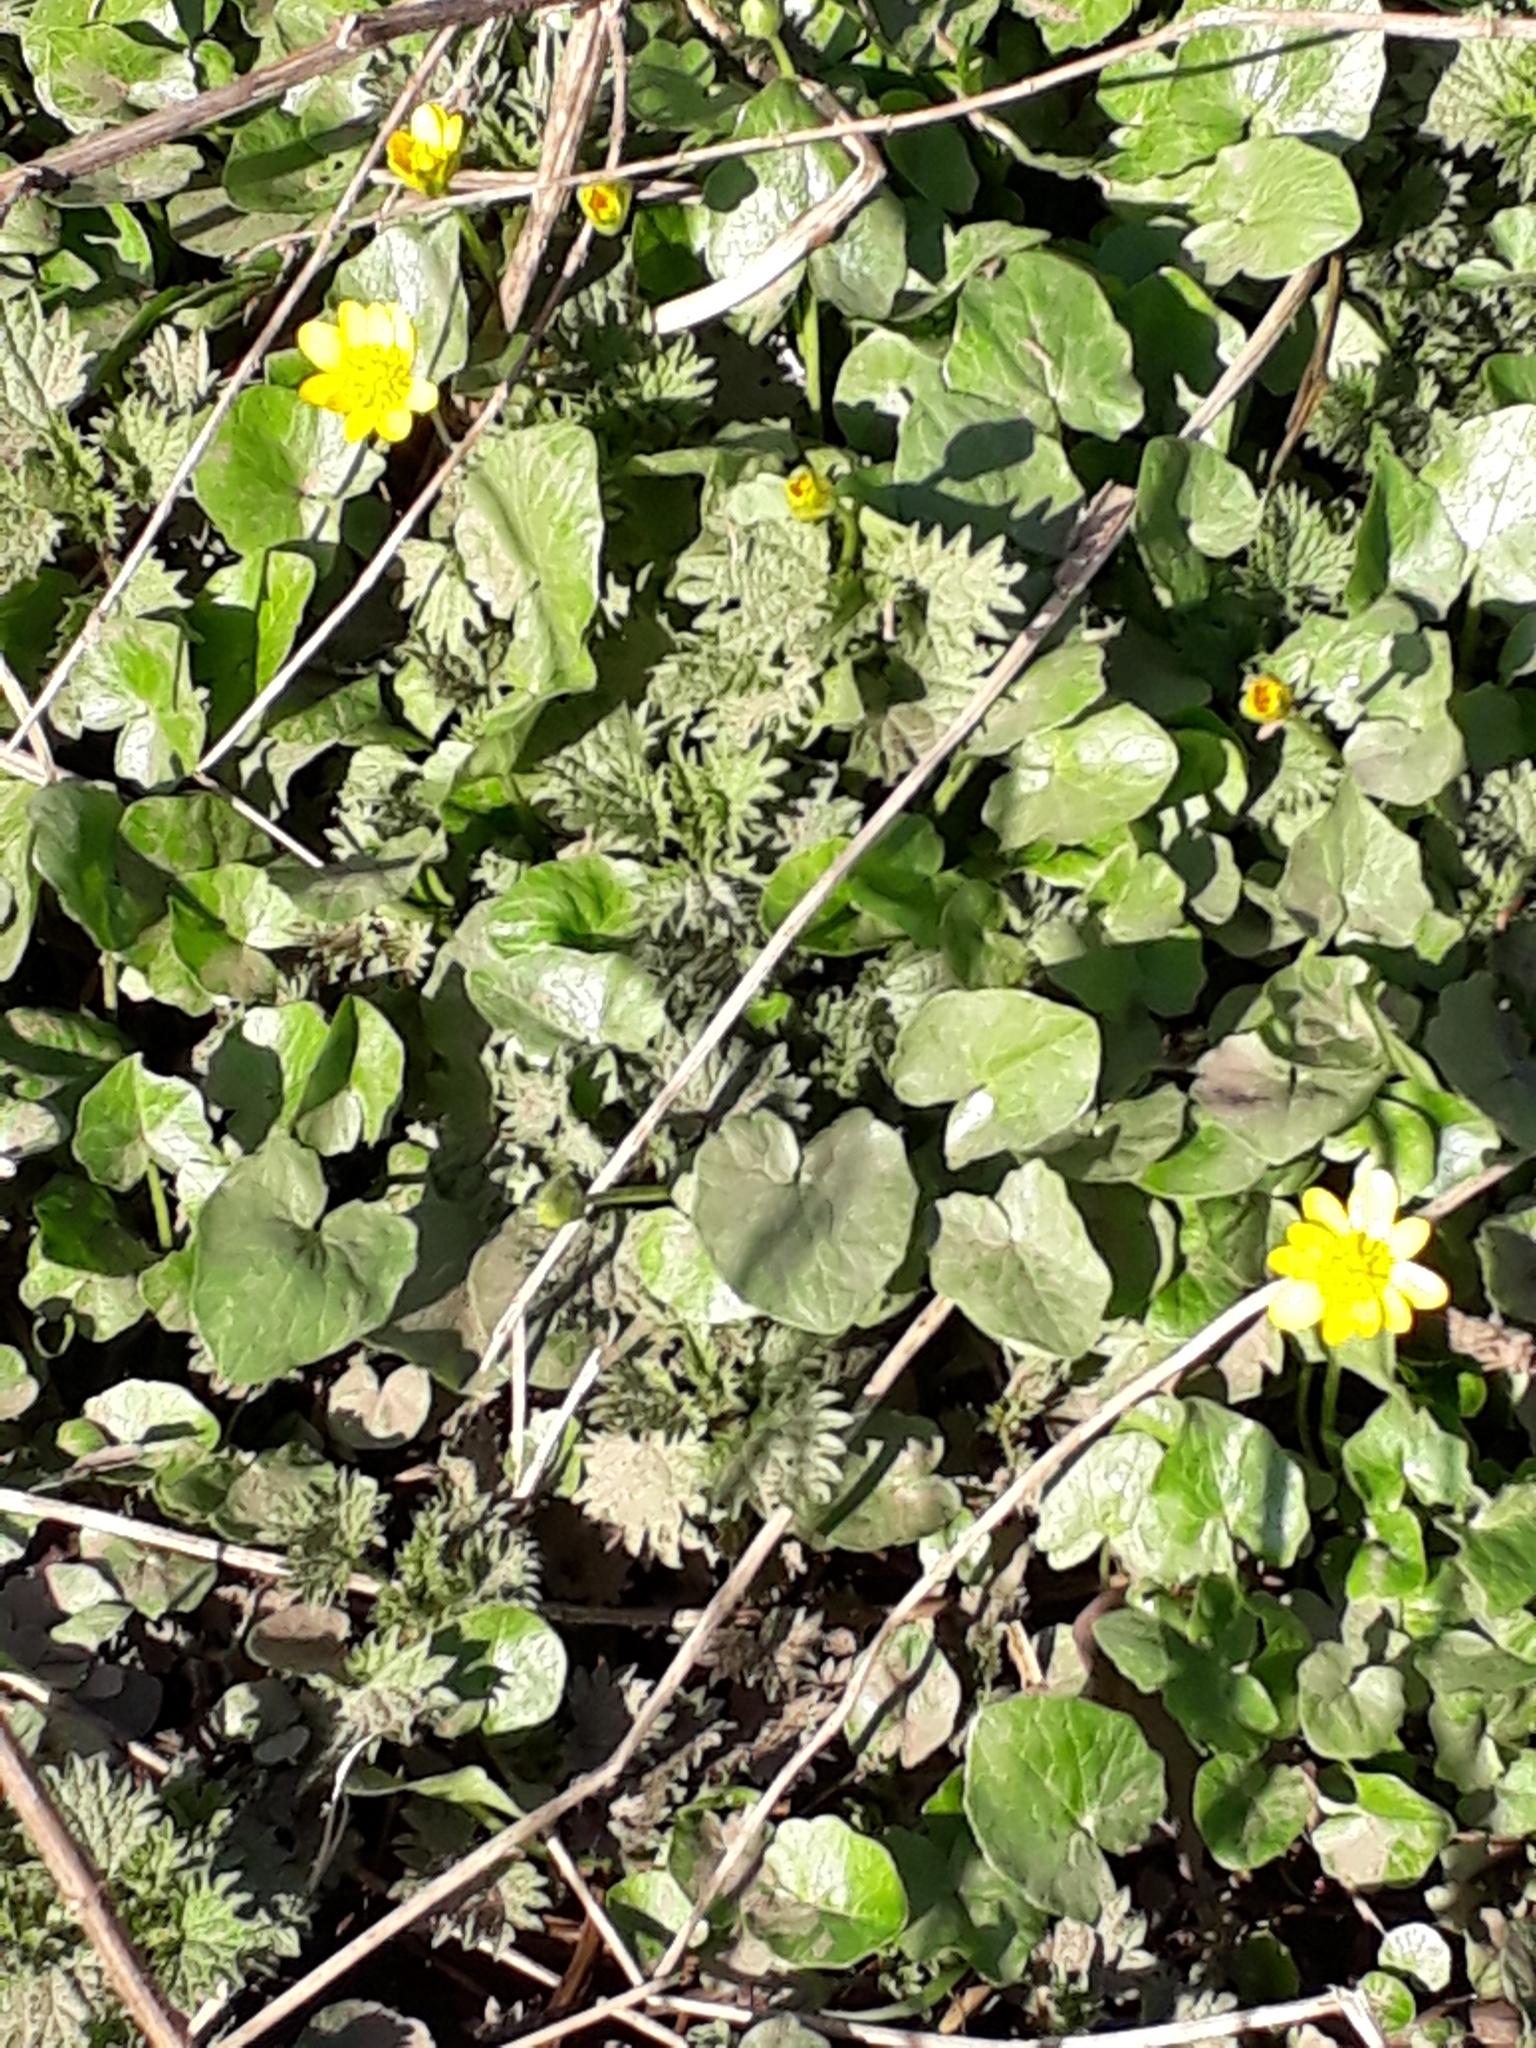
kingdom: Plantae
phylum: Tracheophyta
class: Magnoliopsida
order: Ranunculales
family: Ranunculaceae
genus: Ficaria
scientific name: Ficaria verna
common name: Lesser celandine
